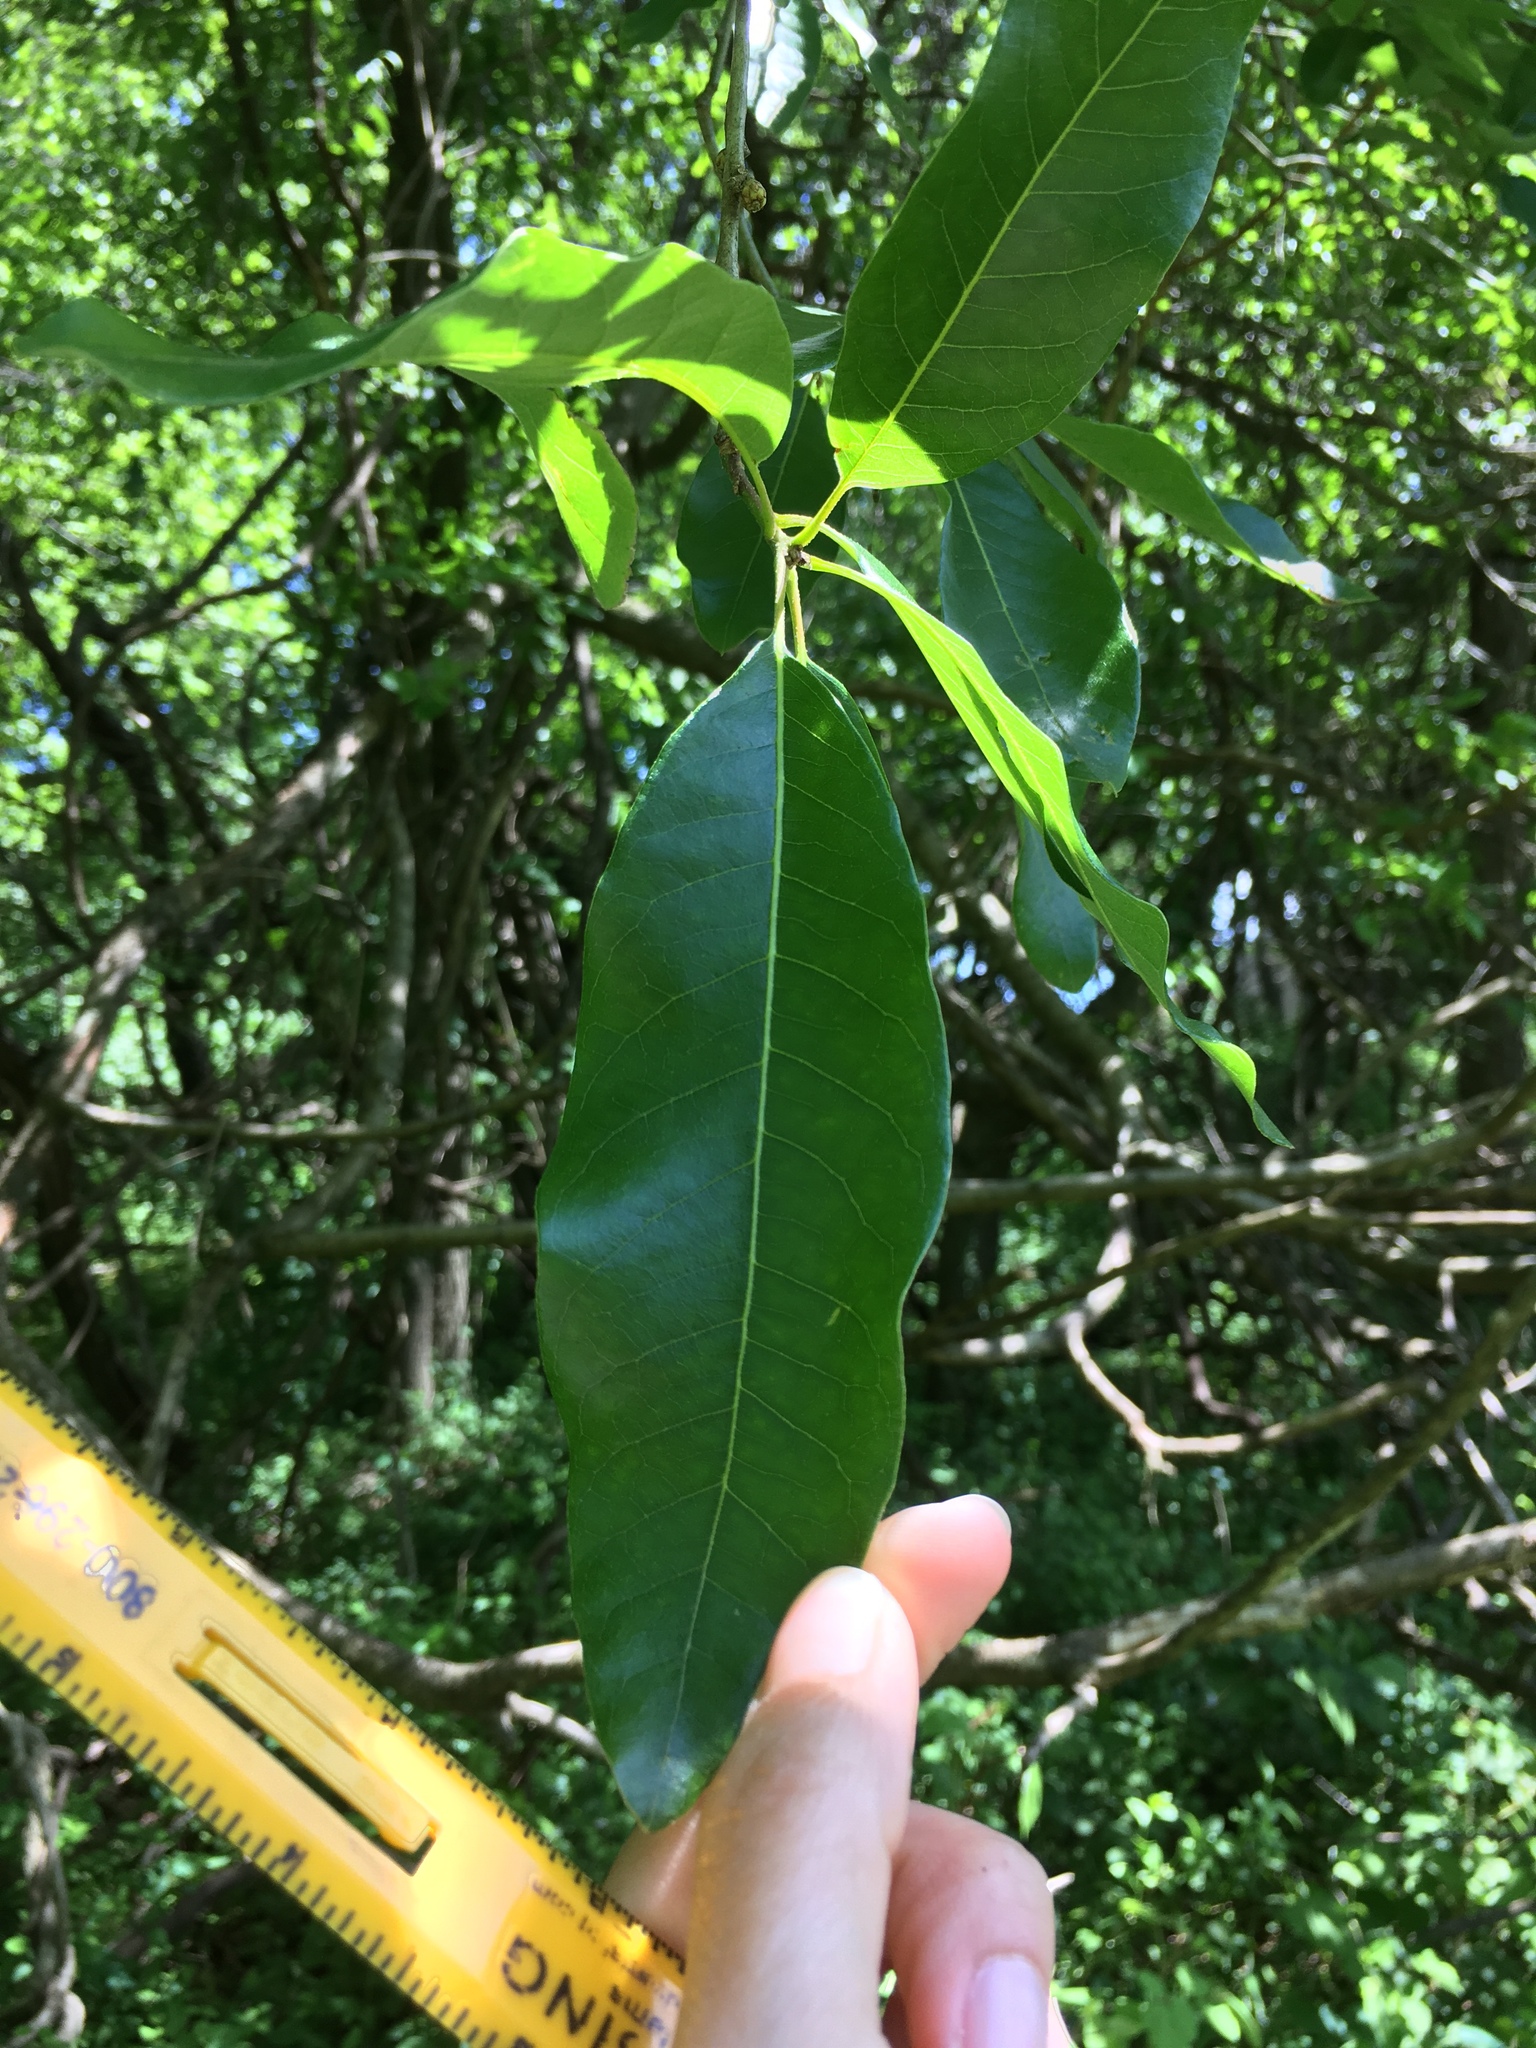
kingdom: Plantae
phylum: Tracheophyta
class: Magnoliopsida
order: Fagales
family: Fagaceae
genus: Quercus
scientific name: Quercus imbricaria
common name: Shingle oak
